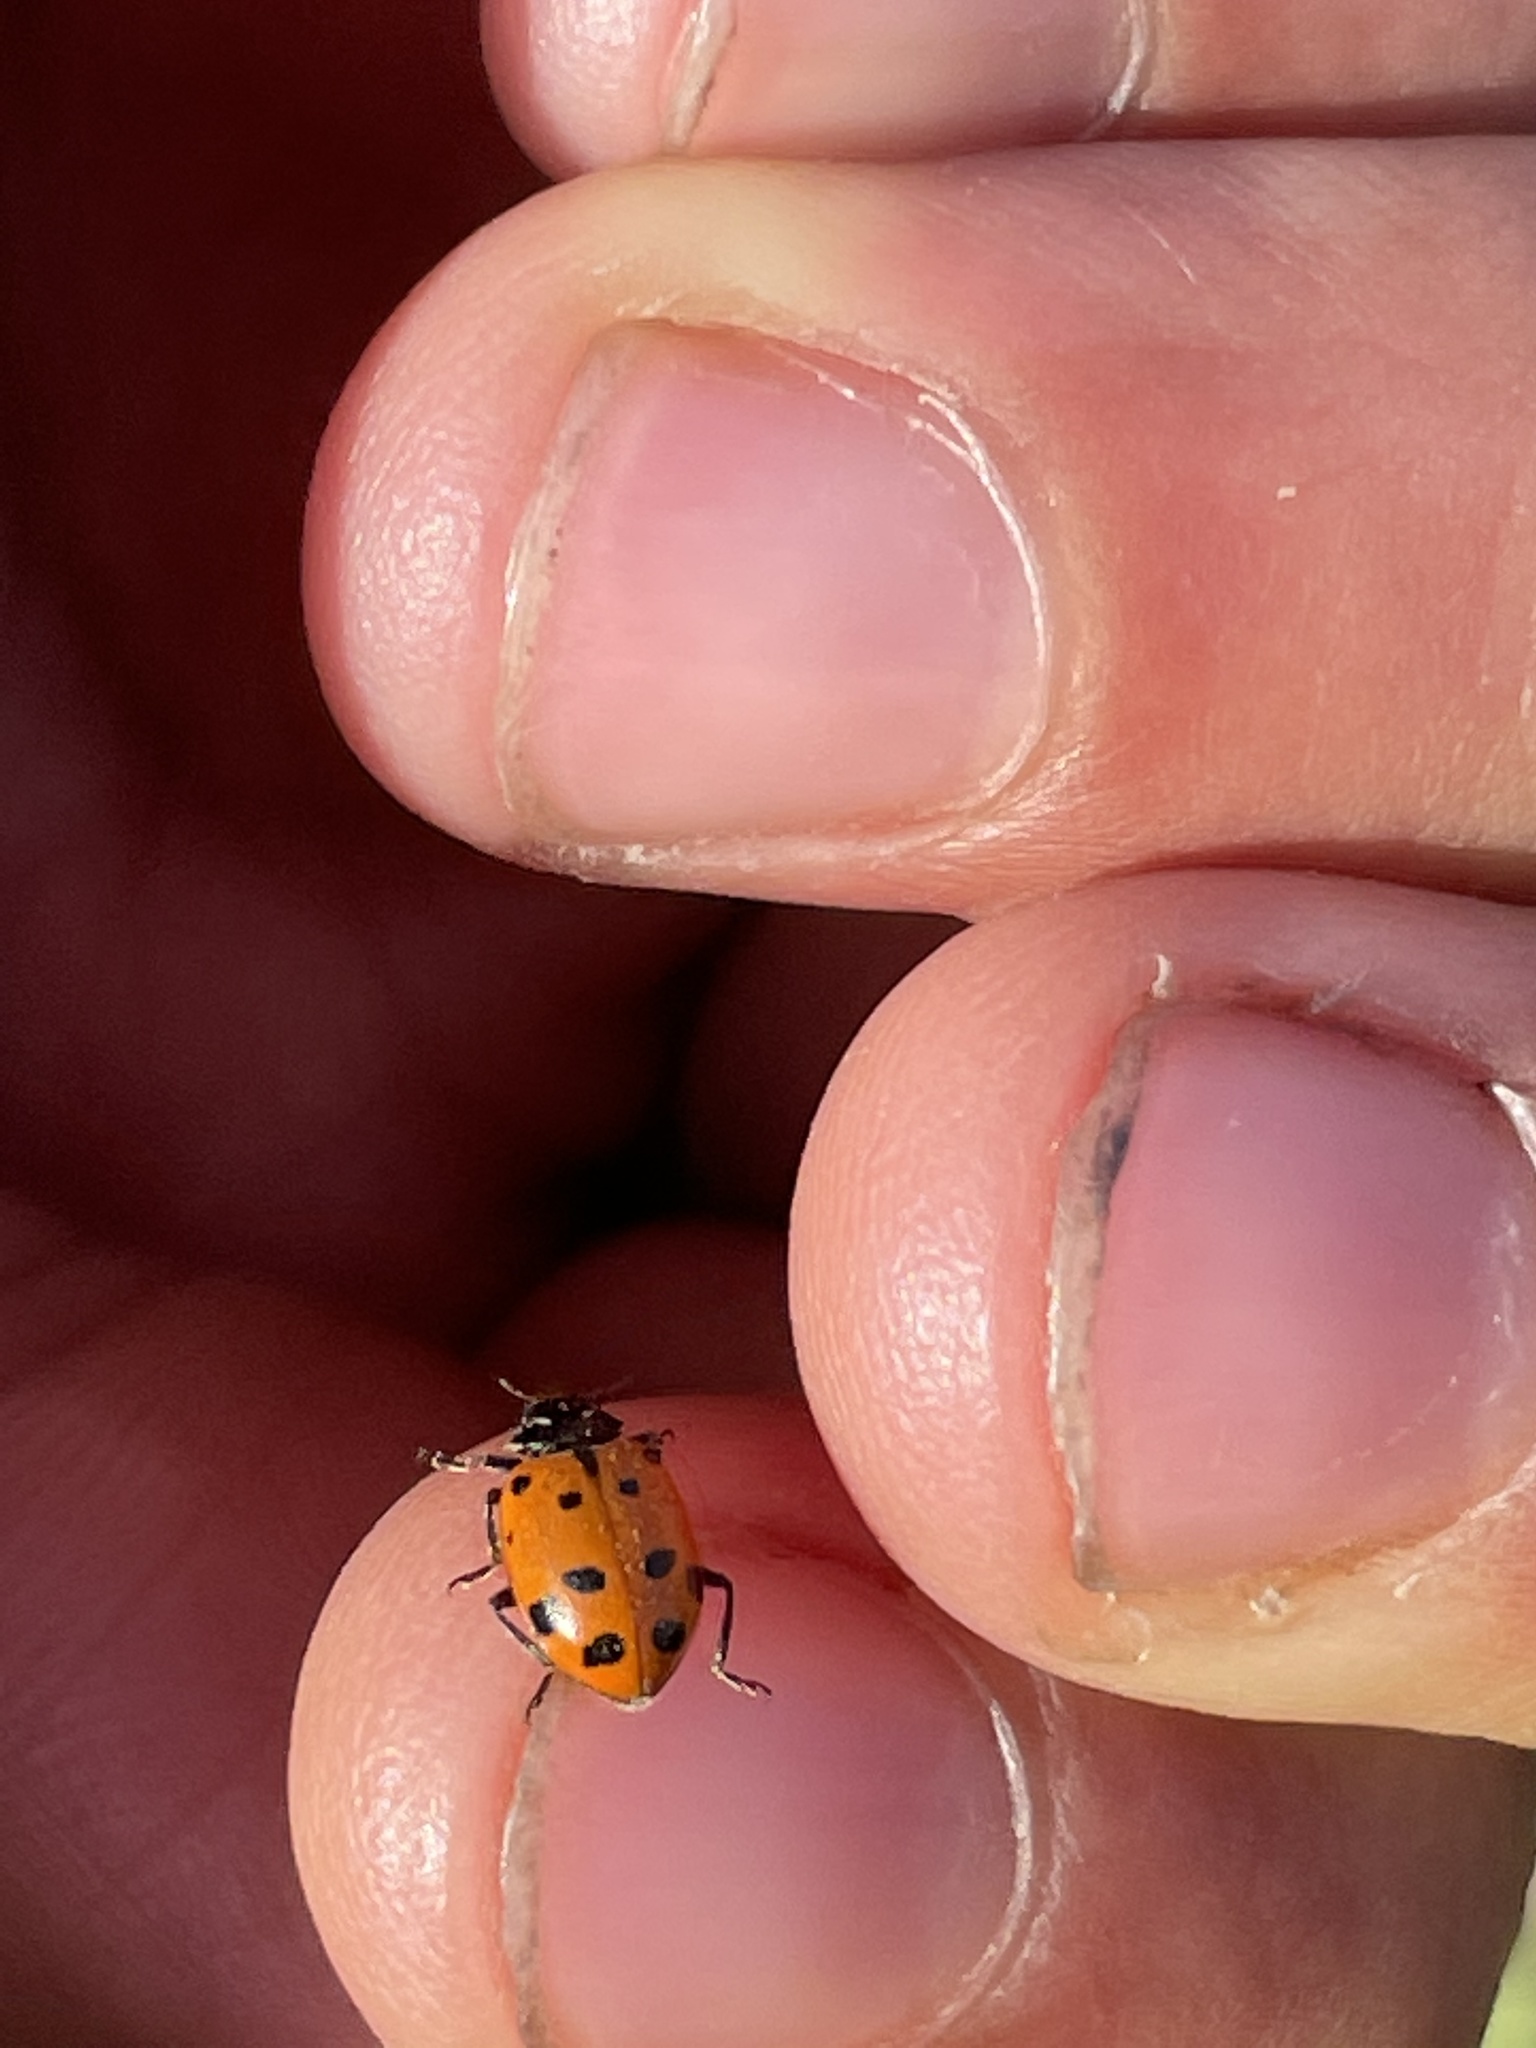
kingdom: Animalia
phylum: Arthropoda
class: Insecta
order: Coleoptera
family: Coccinellidae
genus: Hippodamia
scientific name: Hippodamia convergens
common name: Convergent lady beetle
